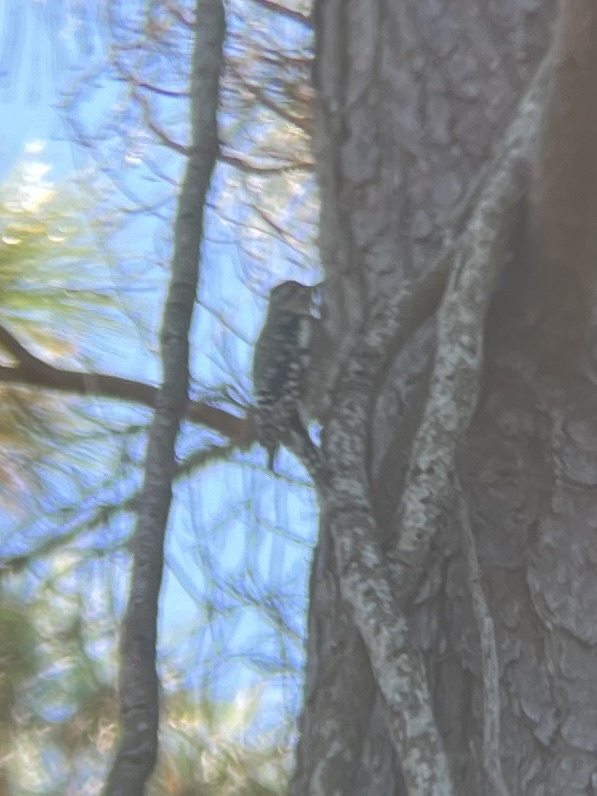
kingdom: Animalia
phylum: Chordata
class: Aves
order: Piciformes
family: Picidae
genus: Sphyrapicus
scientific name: Sphyrapicus varius
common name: Yellow-bellied sapsucker
